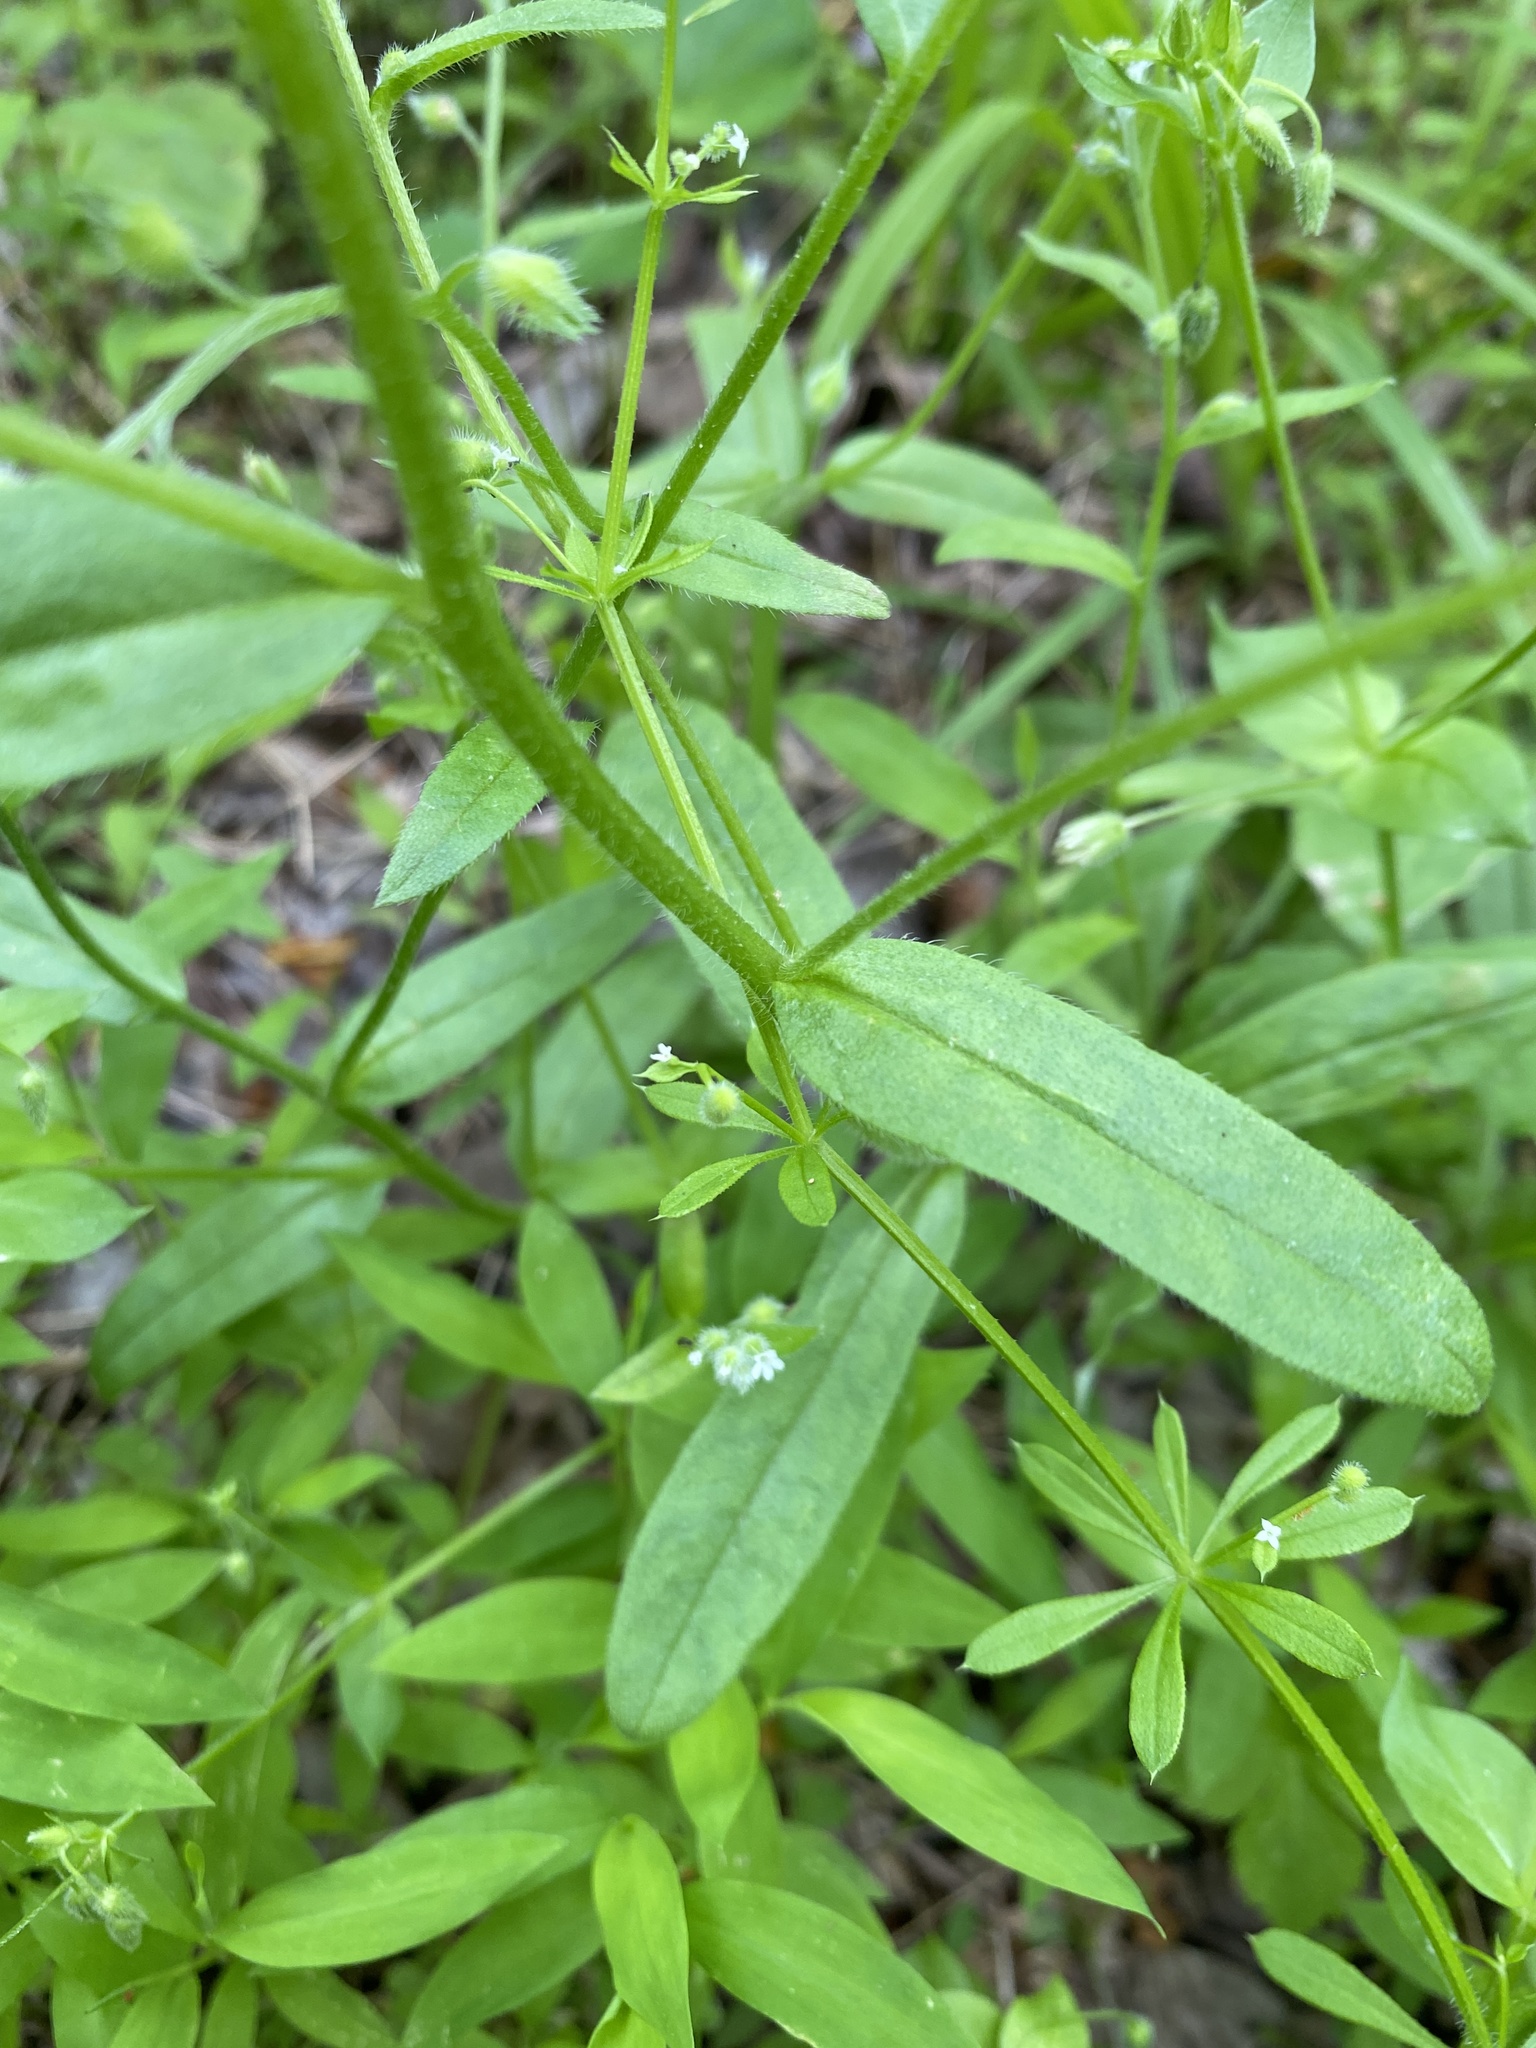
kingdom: Plantae
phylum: Tracheophyta
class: Magnoliopsida
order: Boraginales
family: Boraginaceae
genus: Myosotis
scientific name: Myosotis macrosperma
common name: Large-seed forget-me-not
